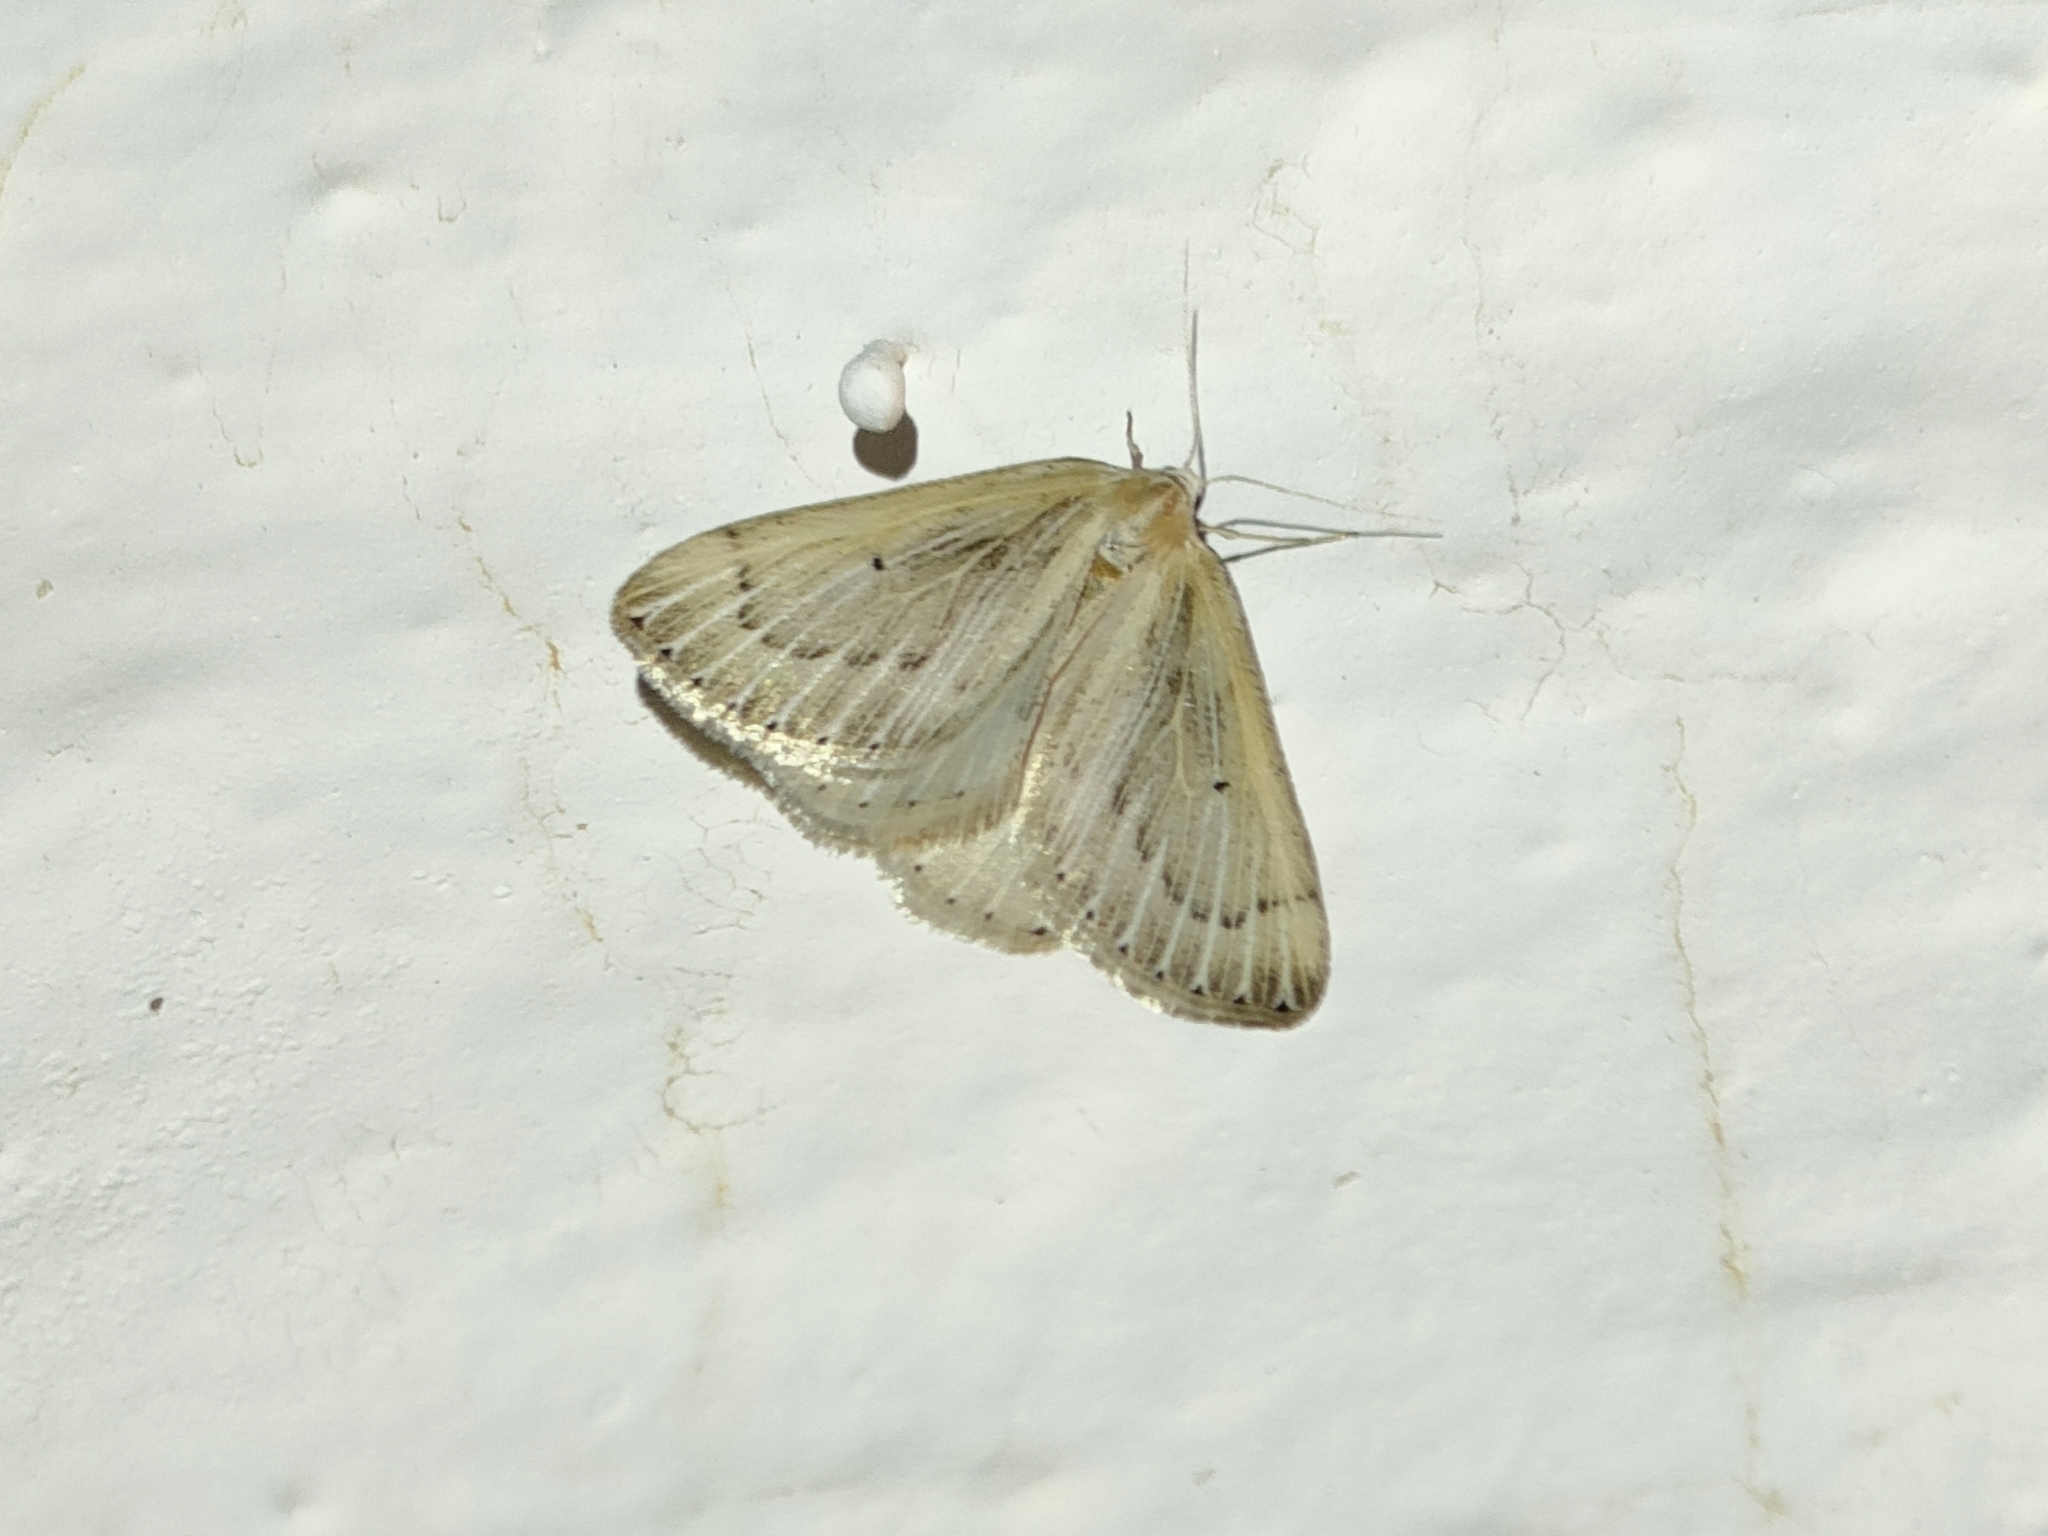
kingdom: Animalia
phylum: Arthropoda
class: Insecta
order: Lepidoptera
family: Geometridae
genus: Myinodes
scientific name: Myinodes interpunctaria
